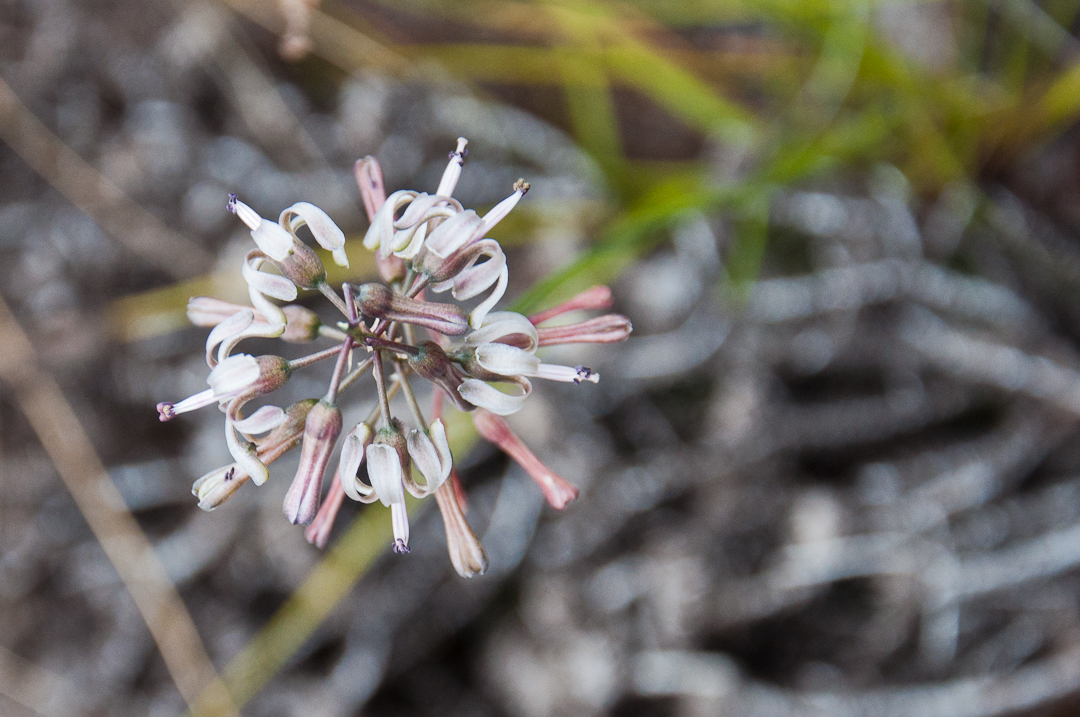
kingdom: Plantae
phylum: Tracheophyta
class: Liliopsida
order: Asparagales
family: Asparagaceae
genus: Drimia
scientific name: Drimia media
